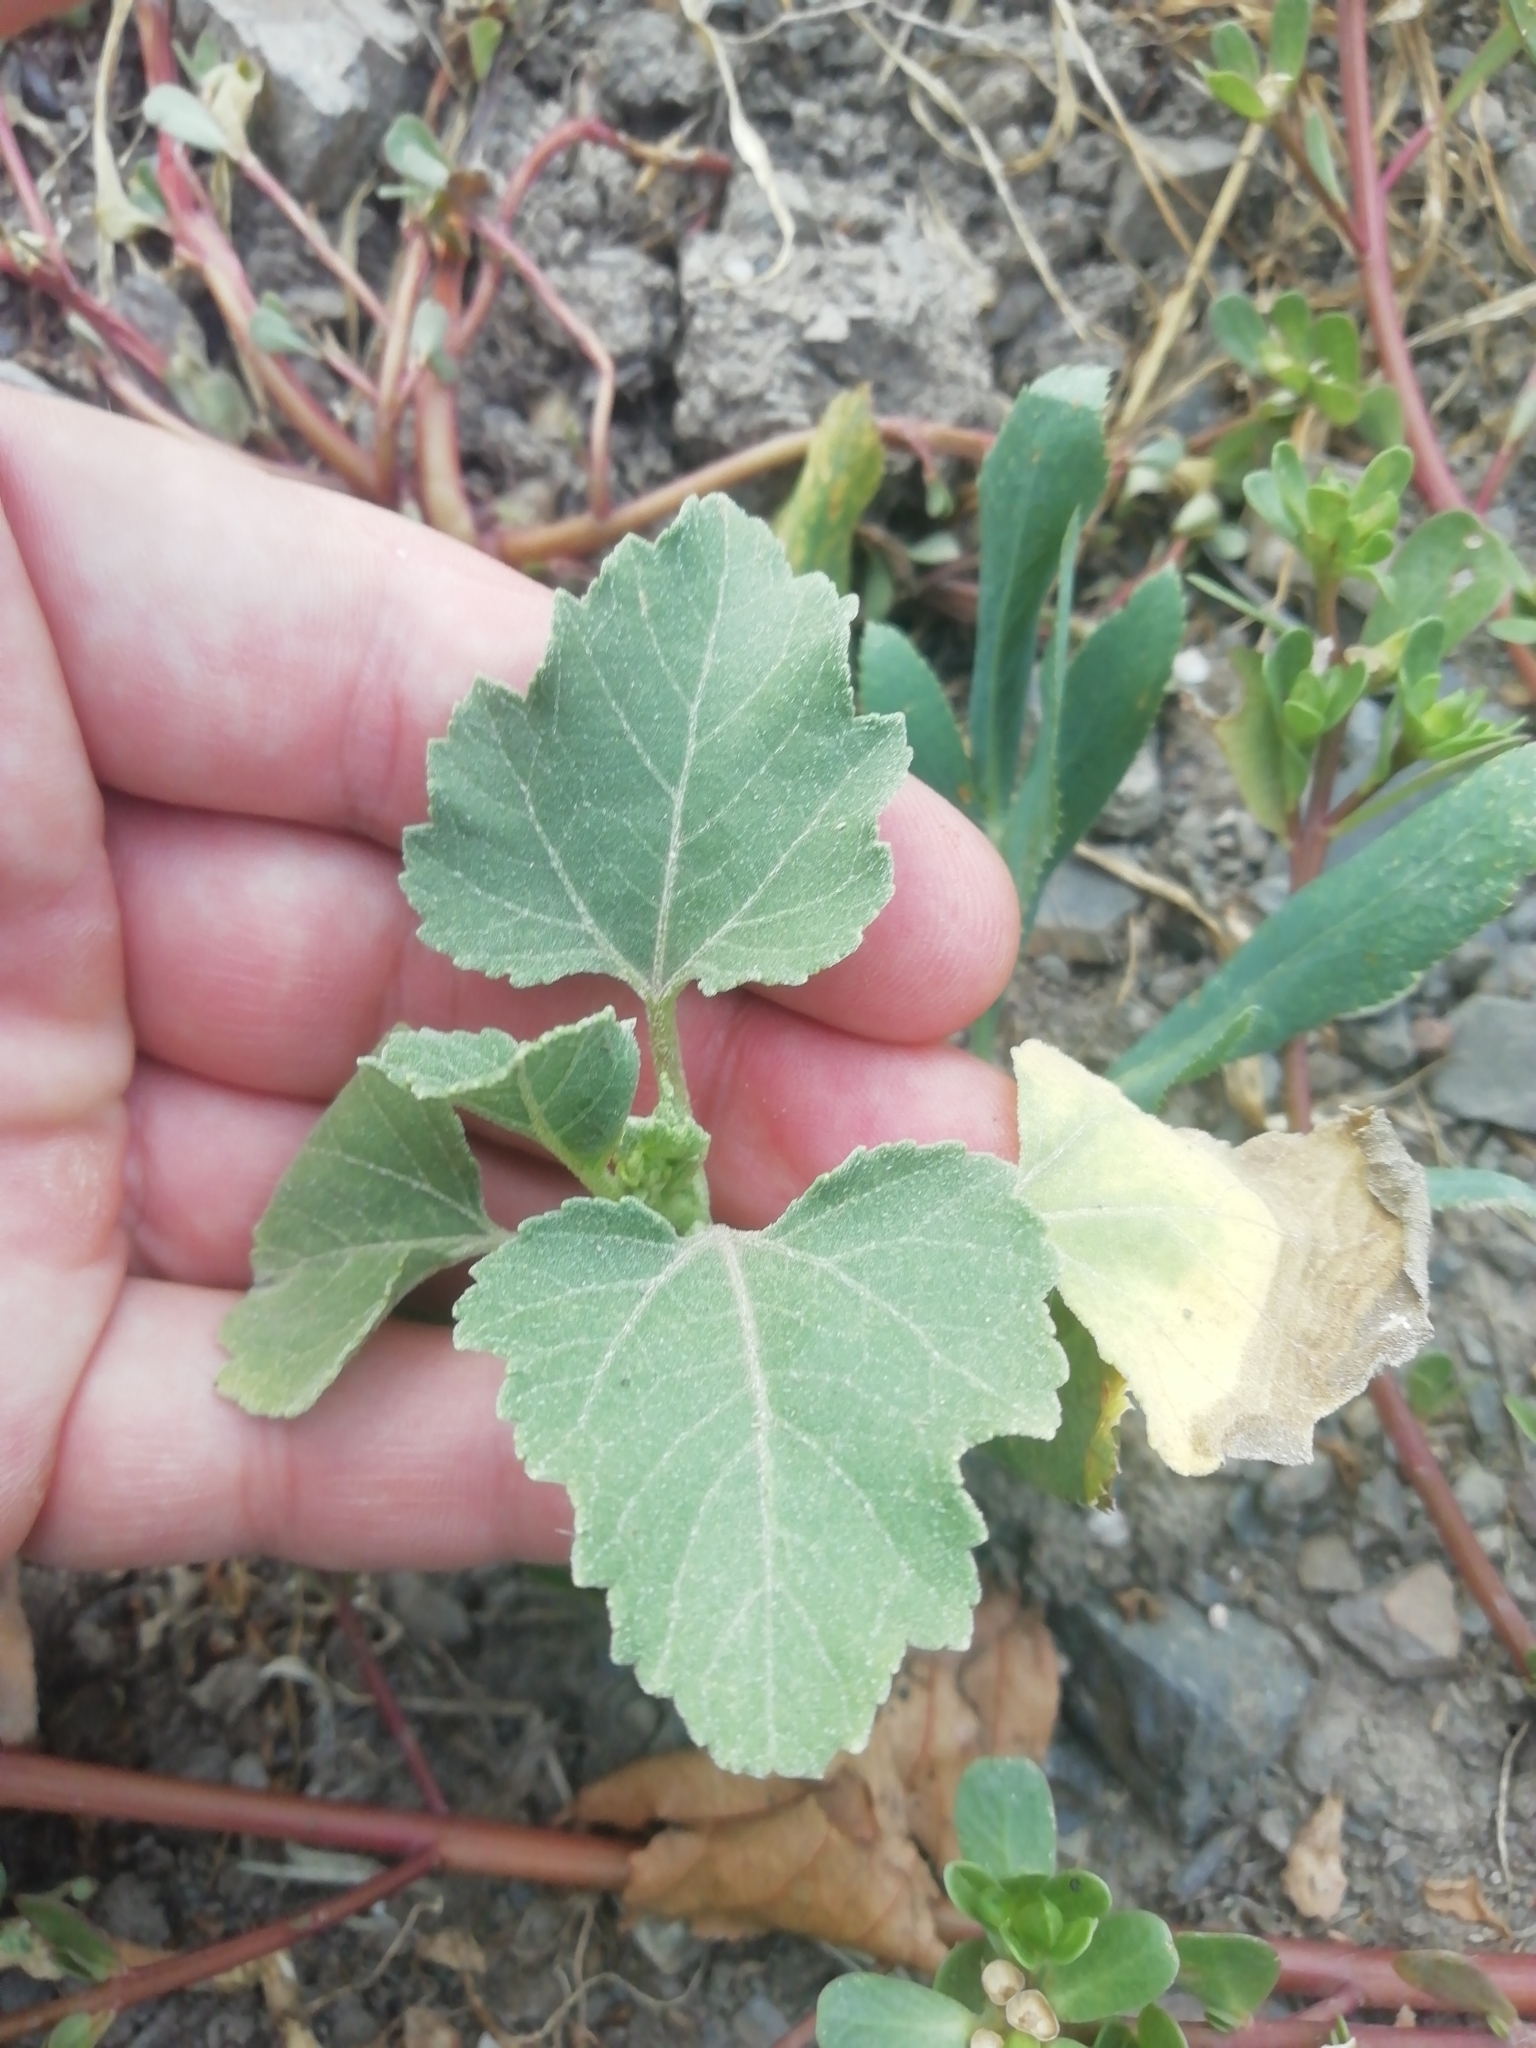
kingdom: Plantae
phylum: Tracheophyta
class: Magnoliopsida
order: Asterales
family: Asteraceae
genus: Xanthium
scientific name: Xanthium orientale
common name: Californian burr
